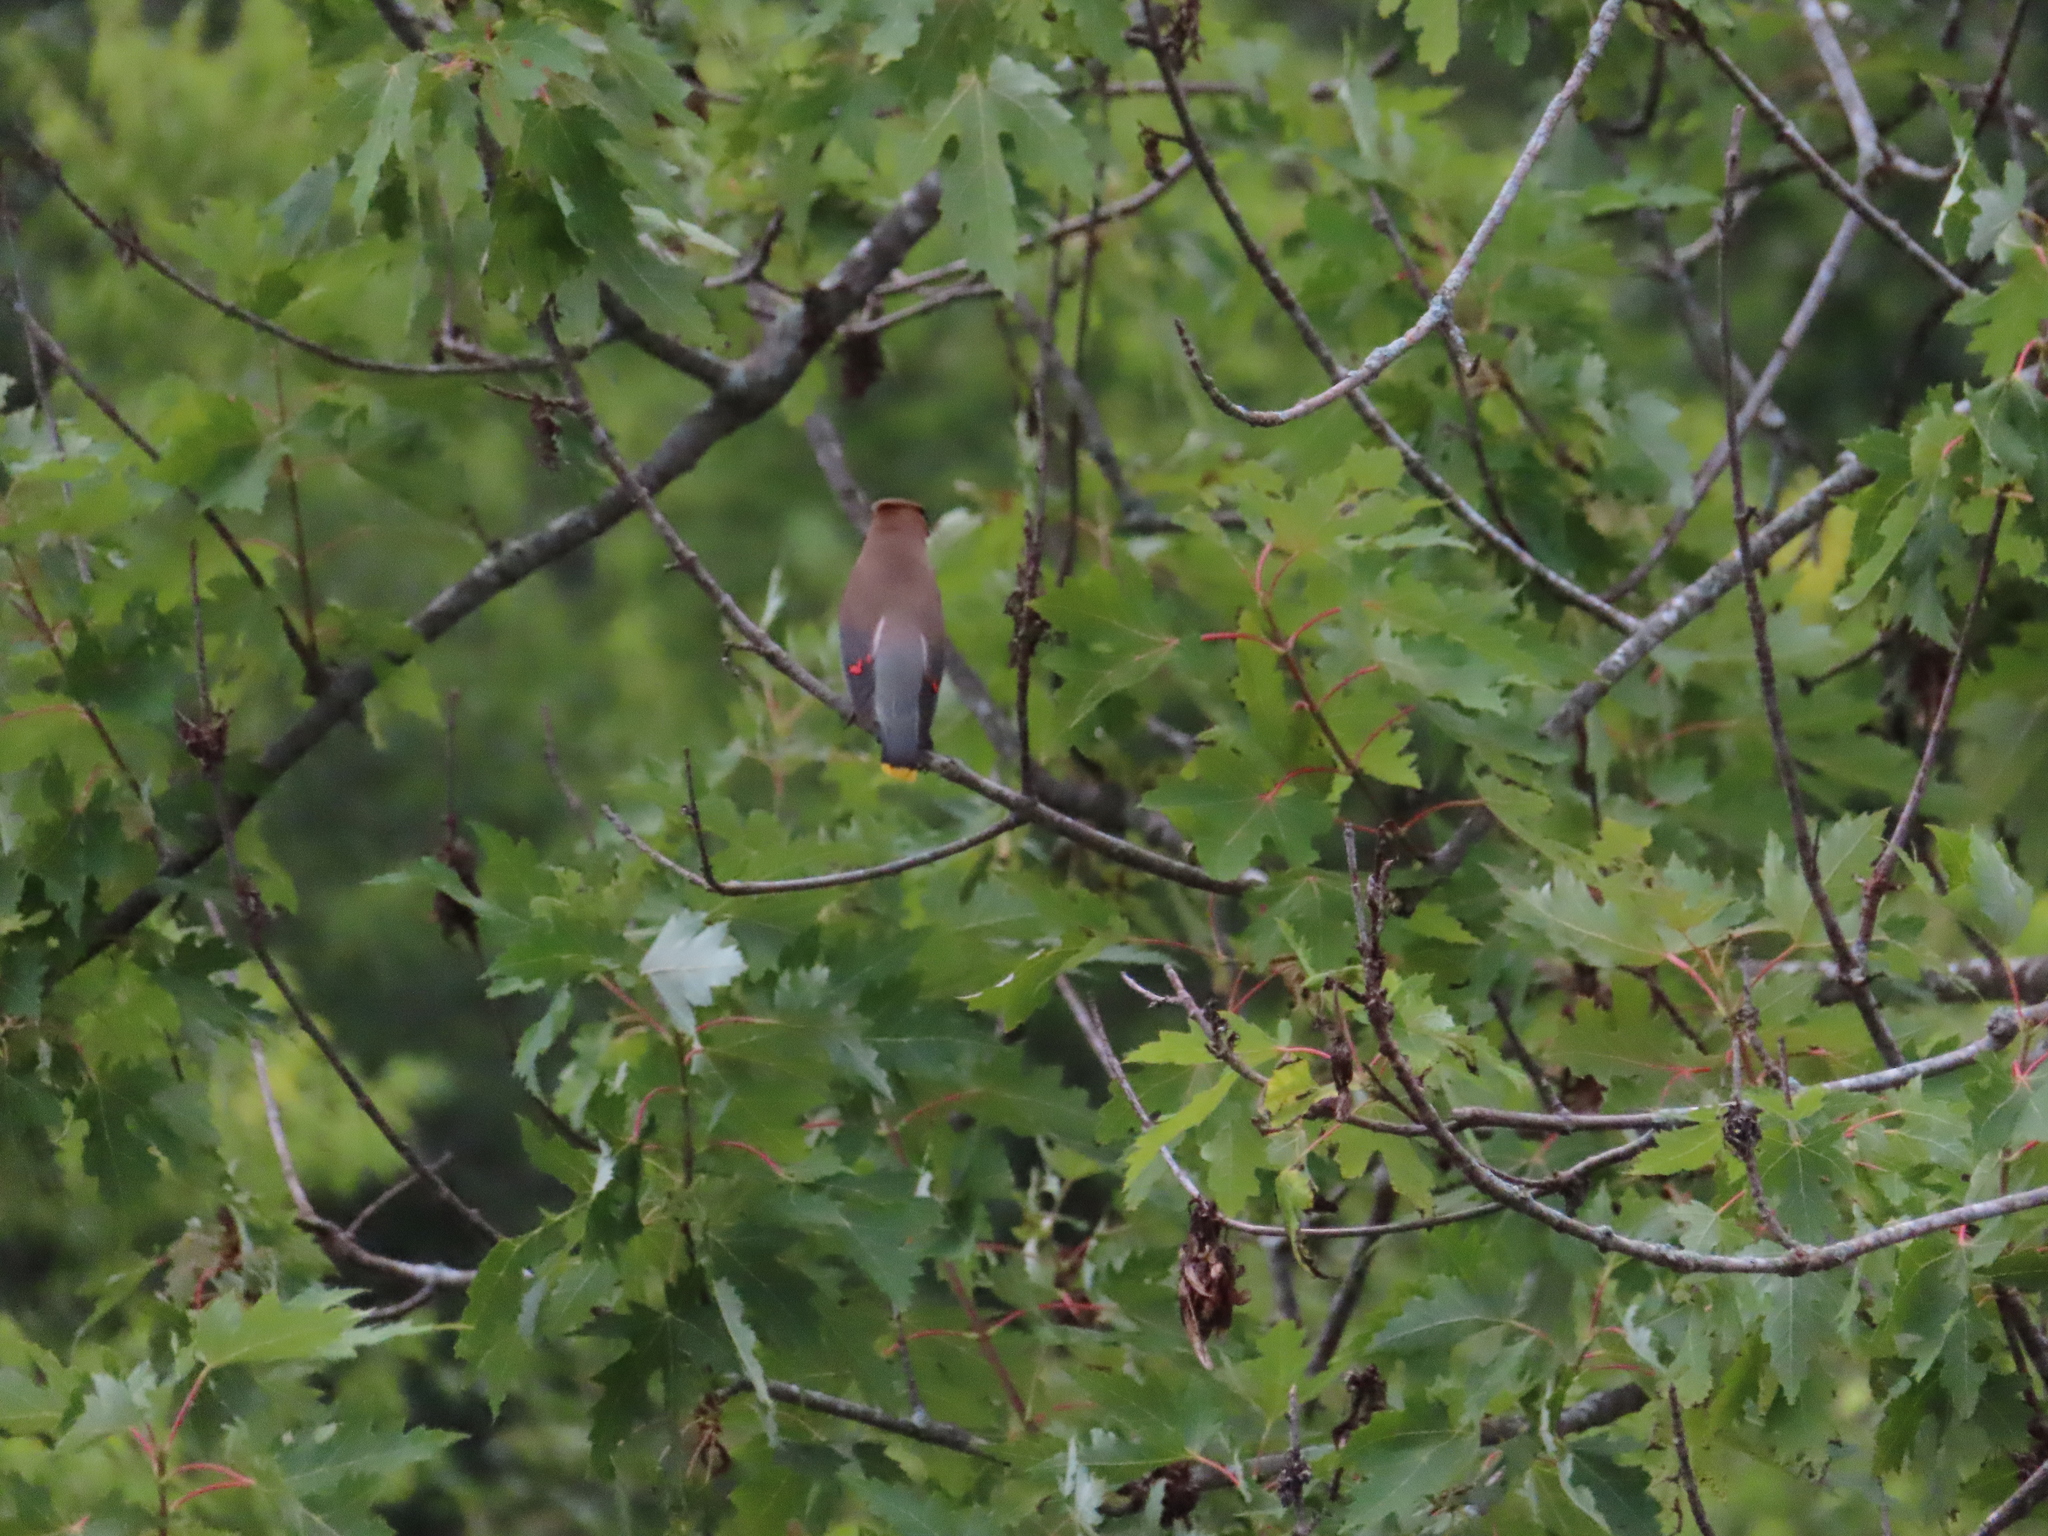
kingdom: Animalia
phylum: Chordata
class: Aves
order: Passeriformes
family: Bombycillidae
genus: Bombycilla
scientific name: Bombycilla cedrorum
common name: Cedar waxwing
